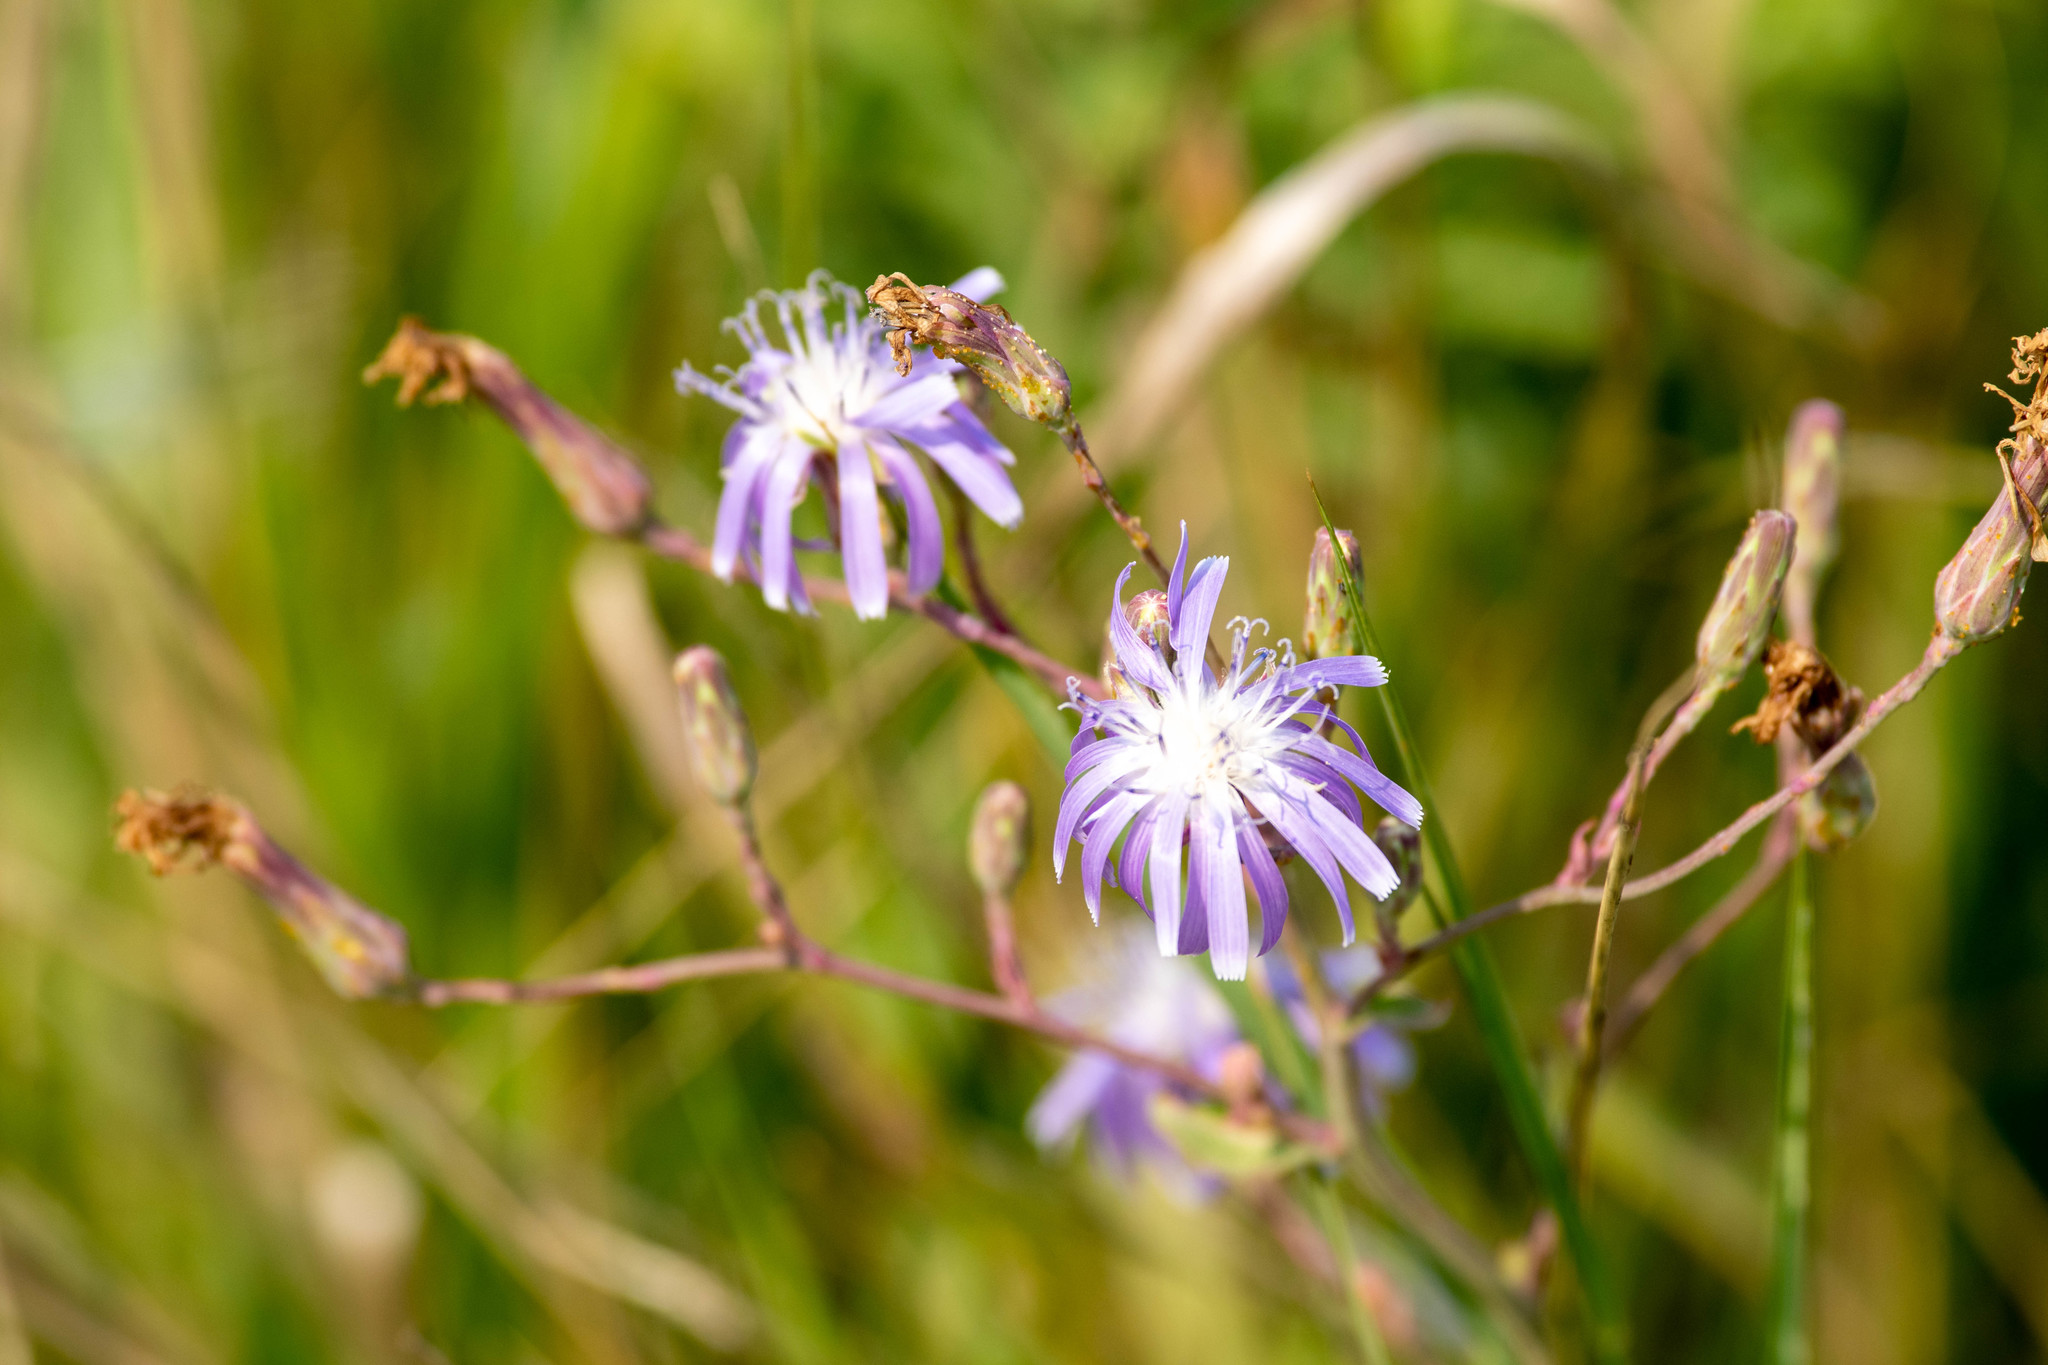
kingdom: Plantae
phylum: Tracheophyta
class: Magnoliopsida
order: Asterales
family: Asteraceae
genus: Lactuca
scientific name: Lactuca pulchella
